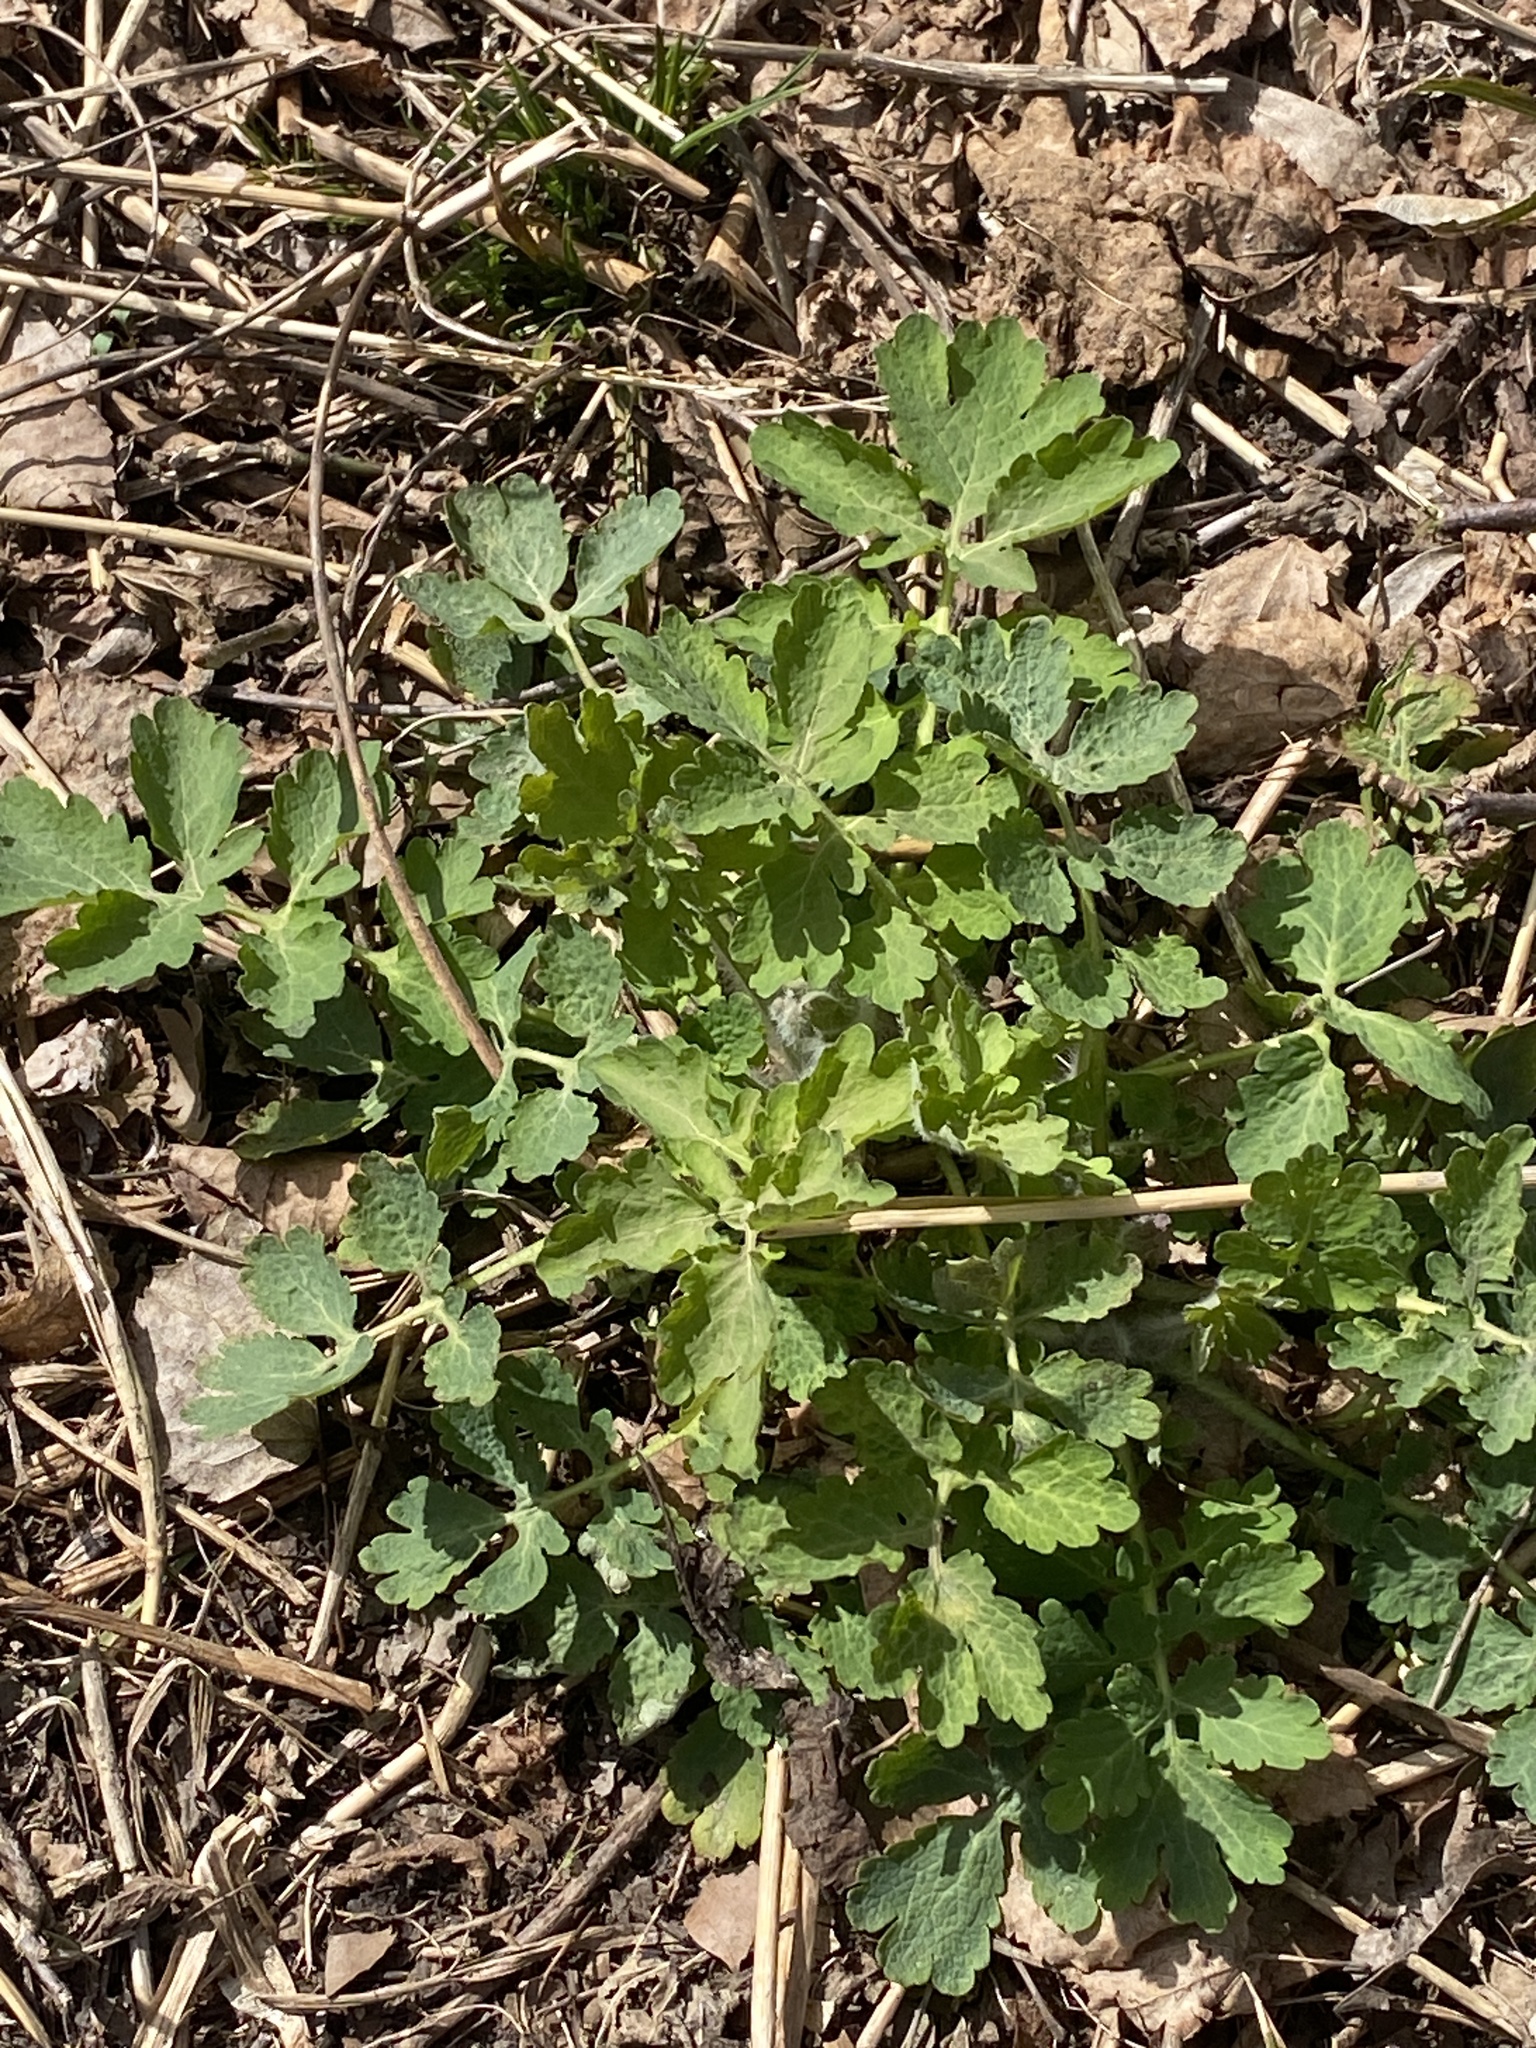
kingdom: Plantae
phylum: Tracheophyta
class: Magnoliopsida
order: Ranunculales
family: Papaveraceae
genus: Chelidonium
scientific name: Chelidonium majus
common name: Greater celandine
